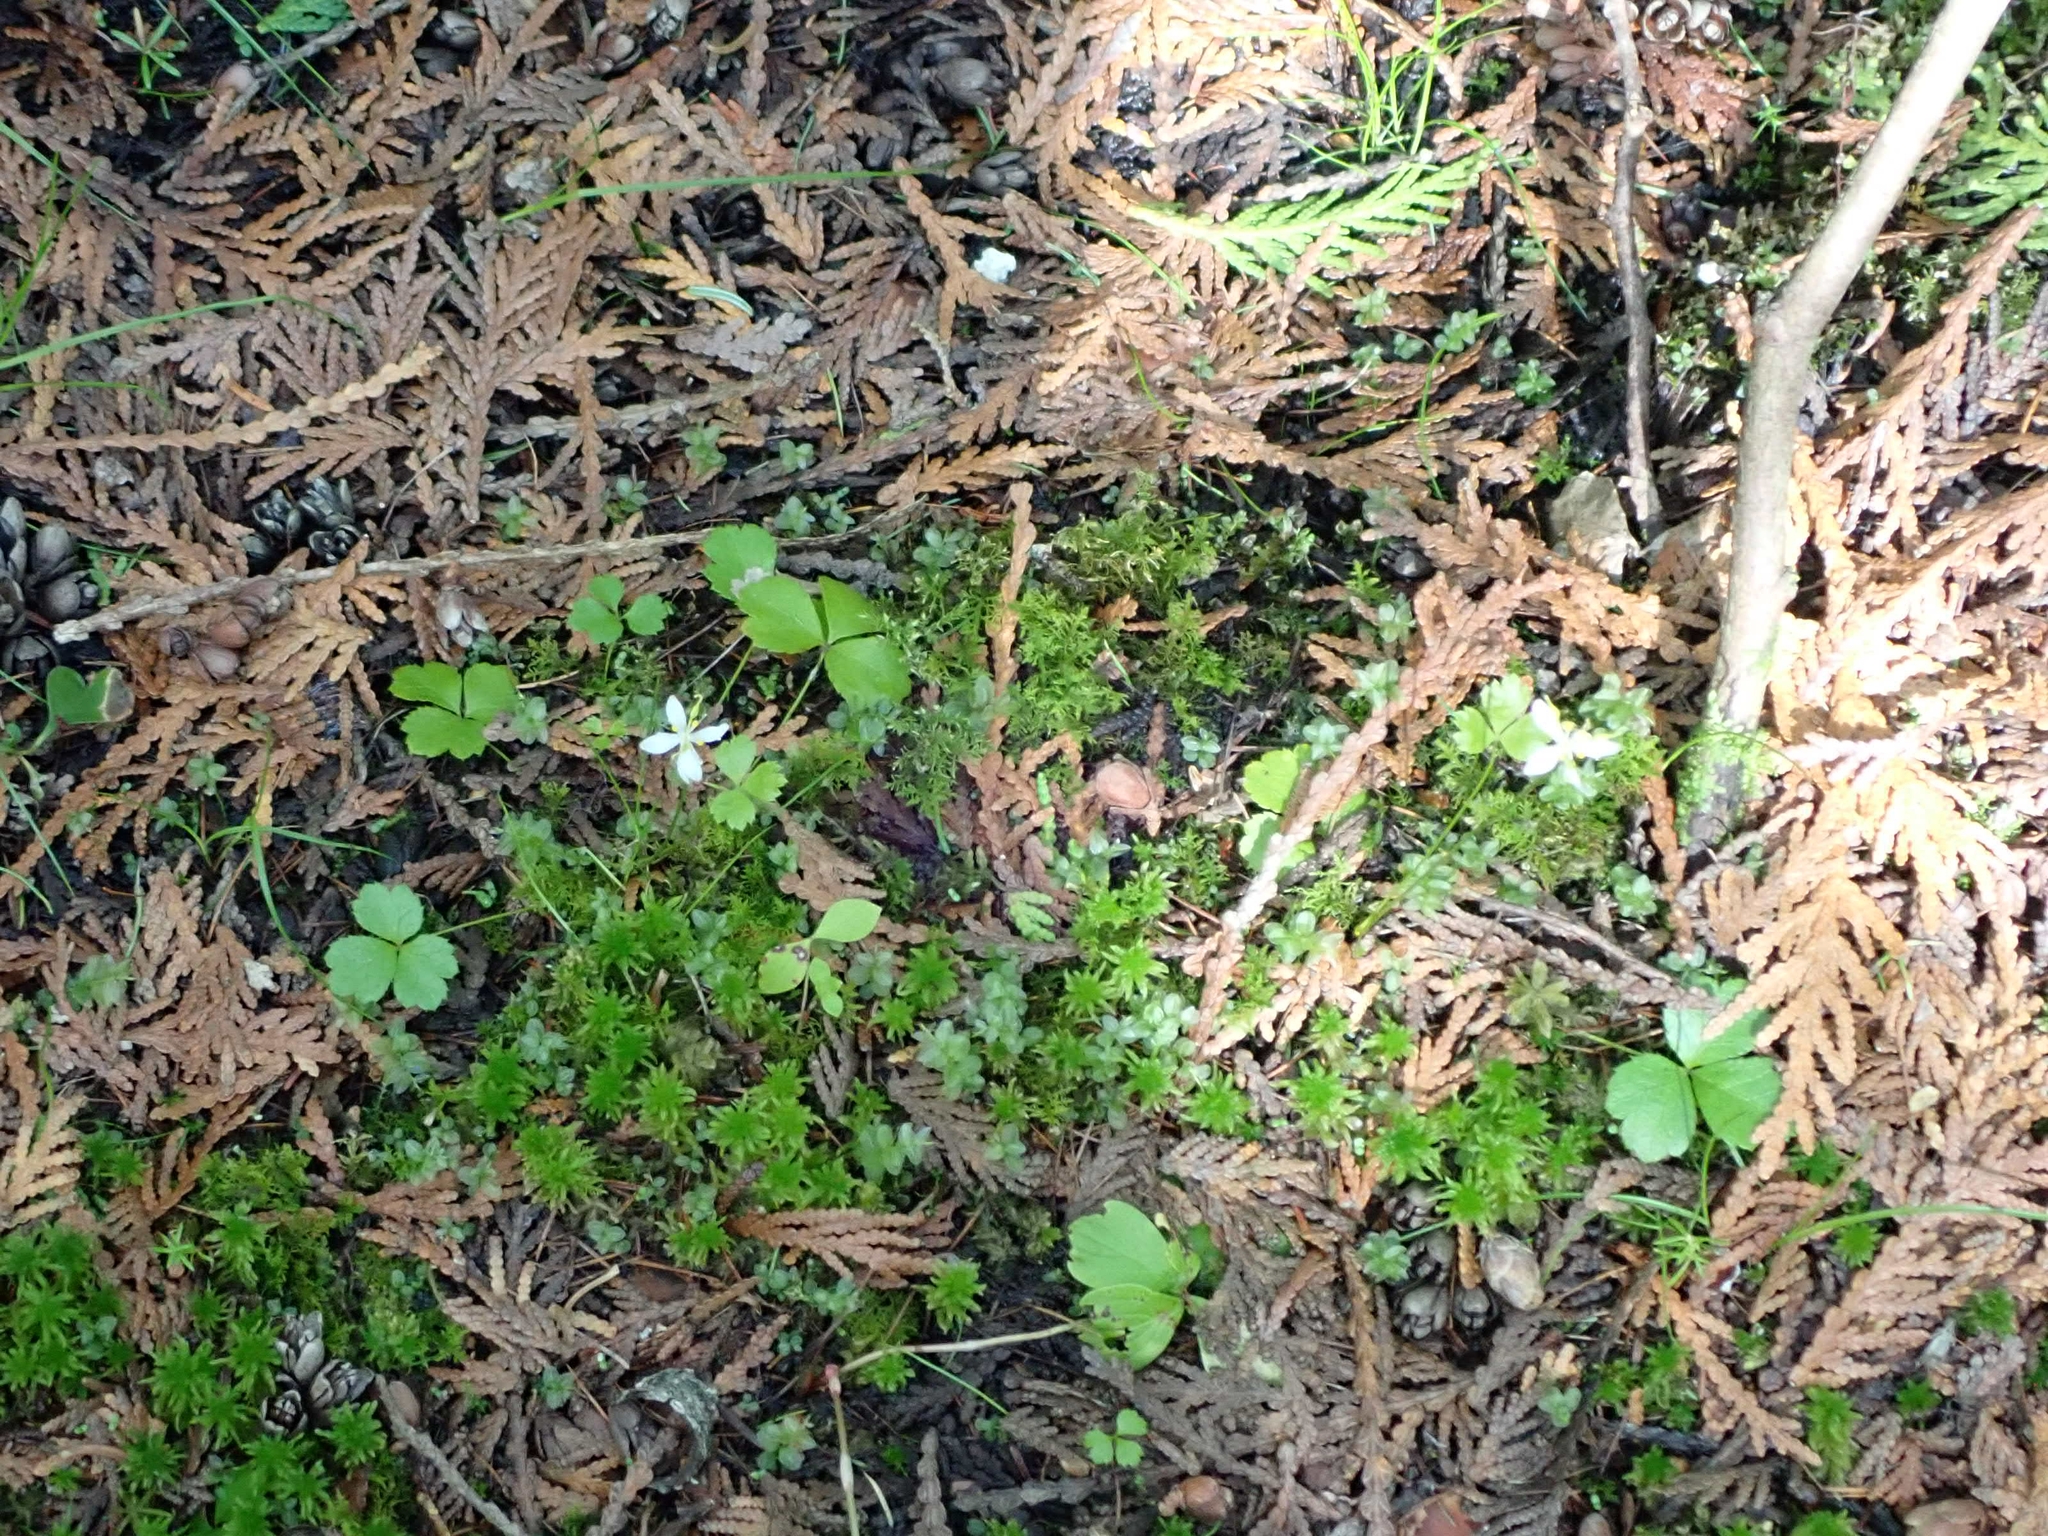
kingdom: Plantae
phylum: Tracheophyta
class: Magnoliopsida
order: Ranunculales
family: Ranunculaceae
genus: Coptis
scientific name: Coptis trifolia
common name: Canker-root
